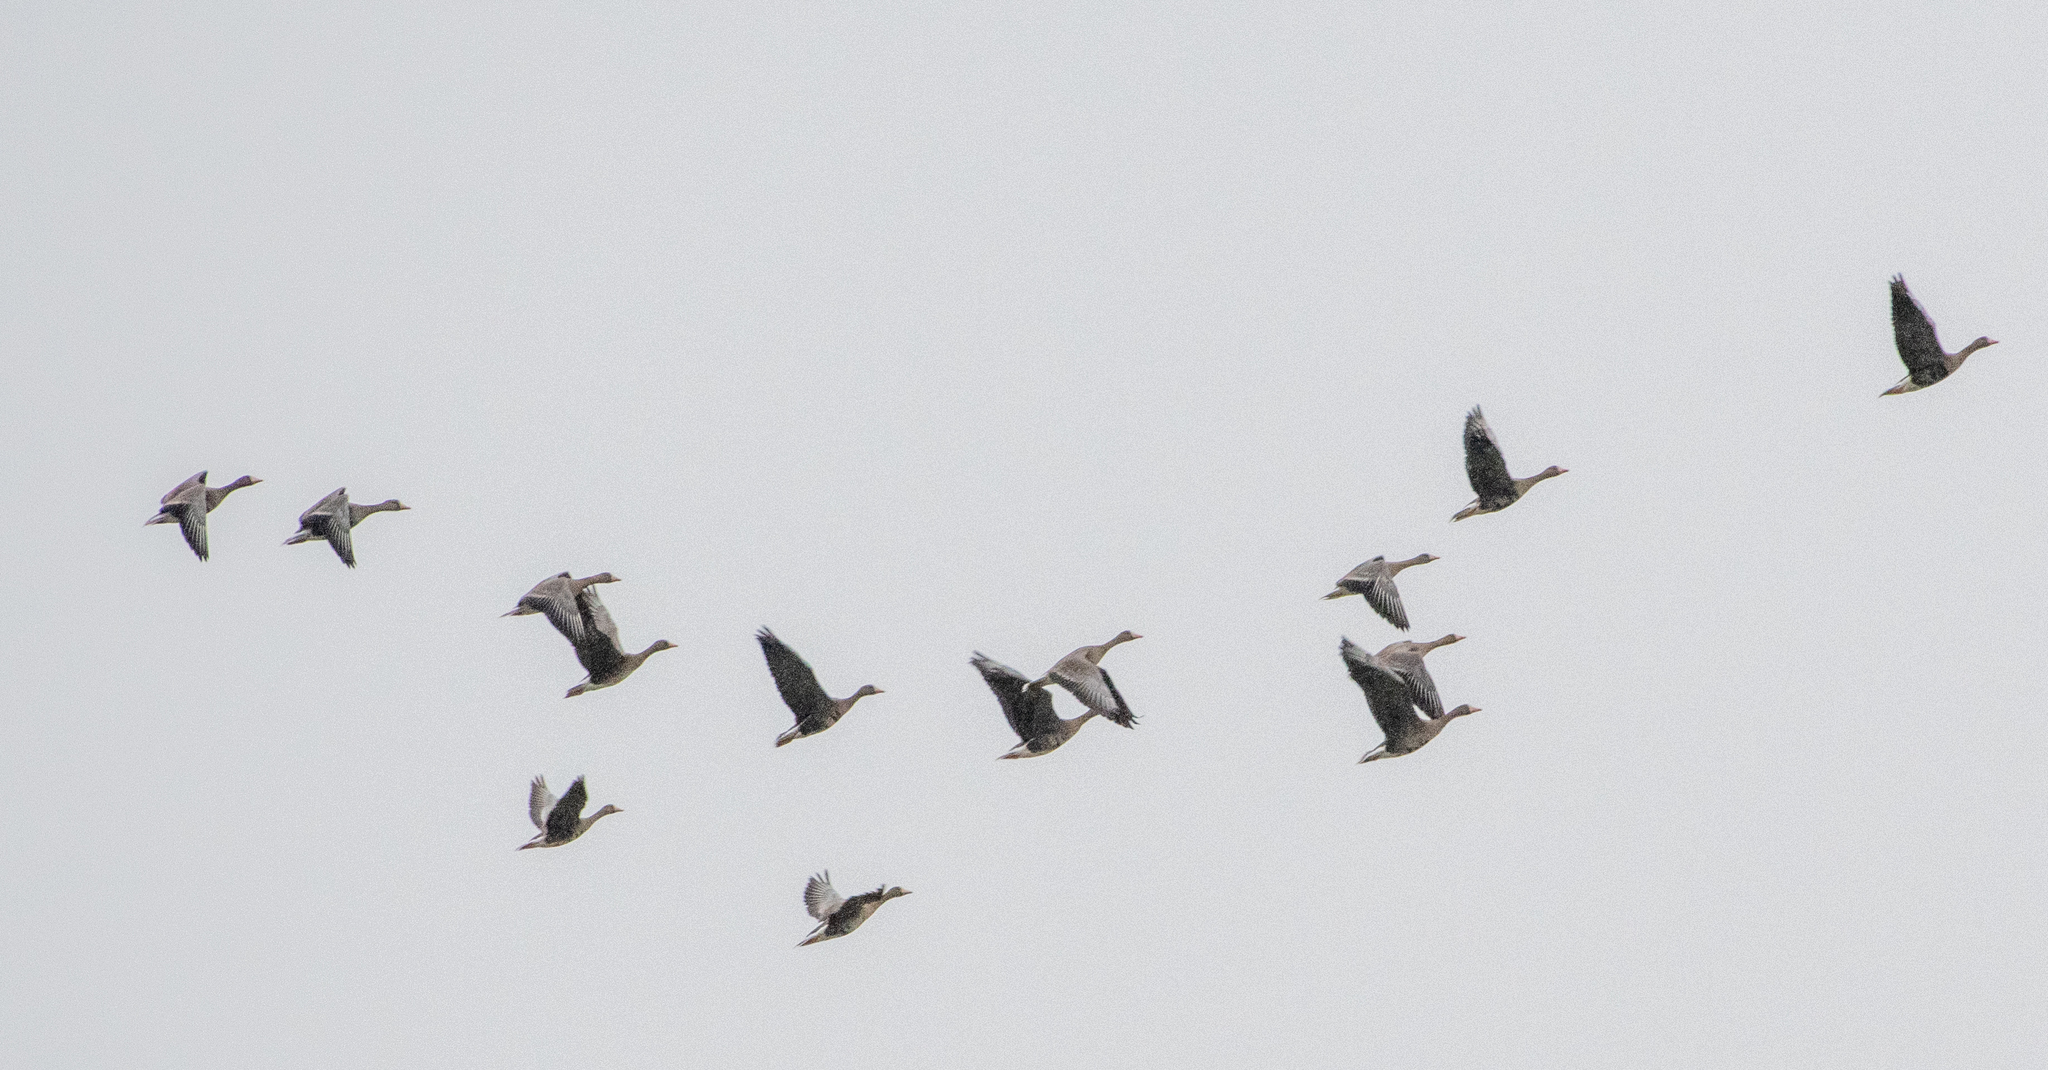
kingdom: Animalia
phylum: Chordata
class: Aves
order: Anseriformes
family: Anatidae
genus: Anser
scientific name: Anser albifrons
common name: Greater white-fronted goose
